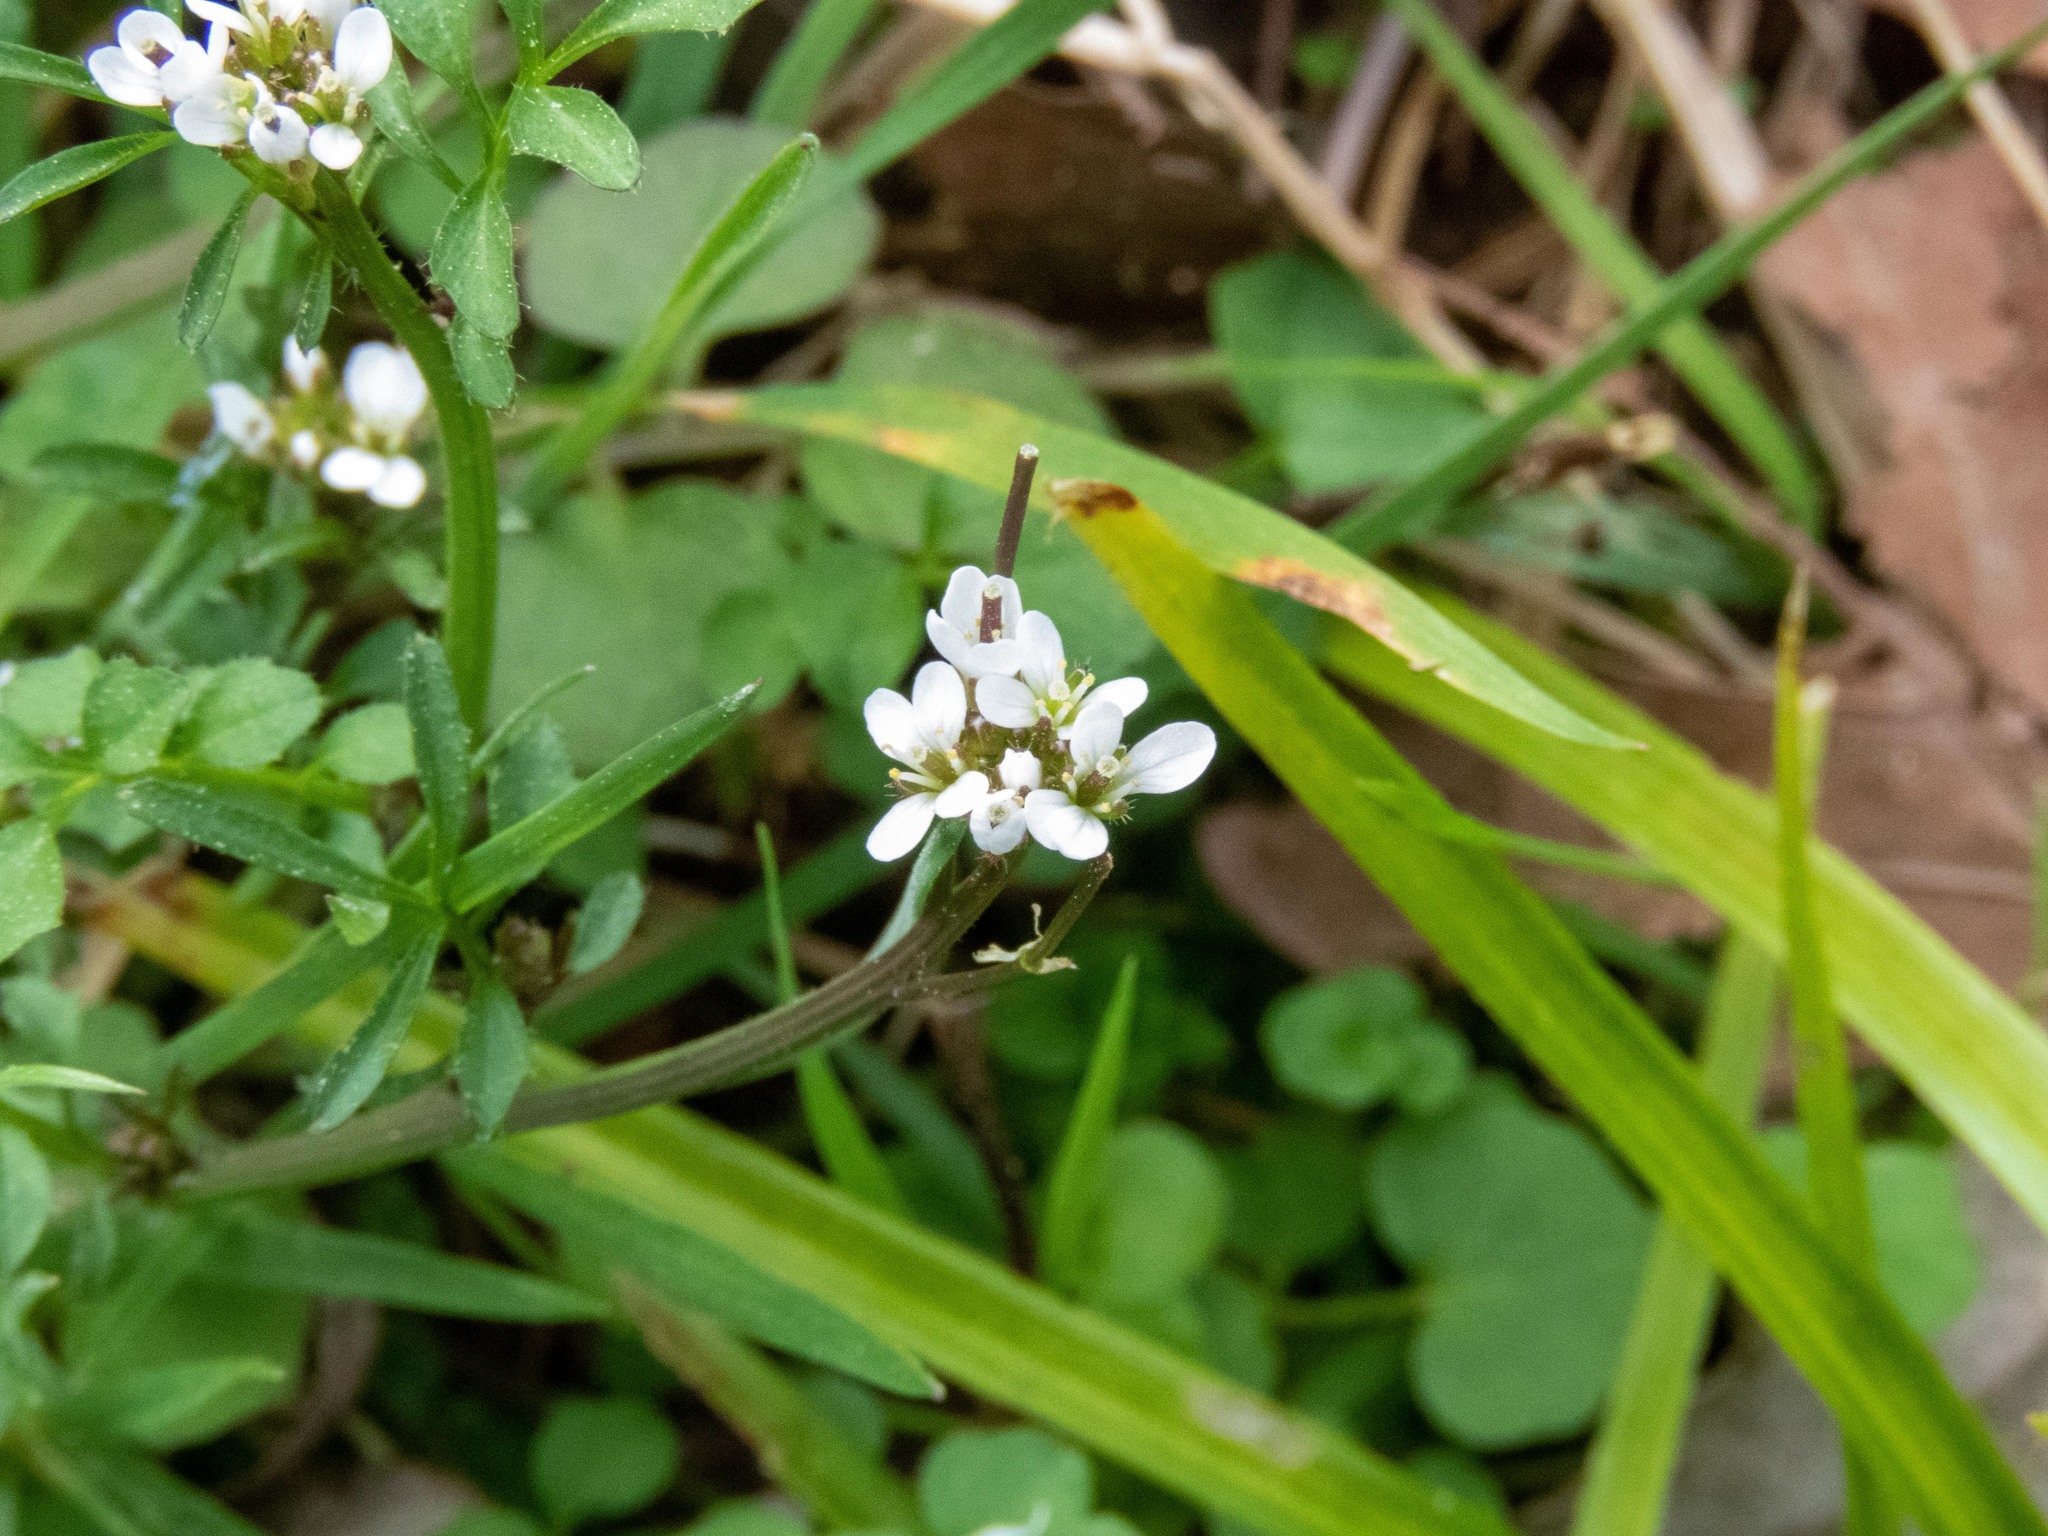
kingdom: Plantae
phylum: Tracheophyta
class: Magnoliopsida
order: Brassicales
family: Brassicaceae
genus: Cardamine
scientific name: Cardamine hirsuta
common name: Hairy bittercress
